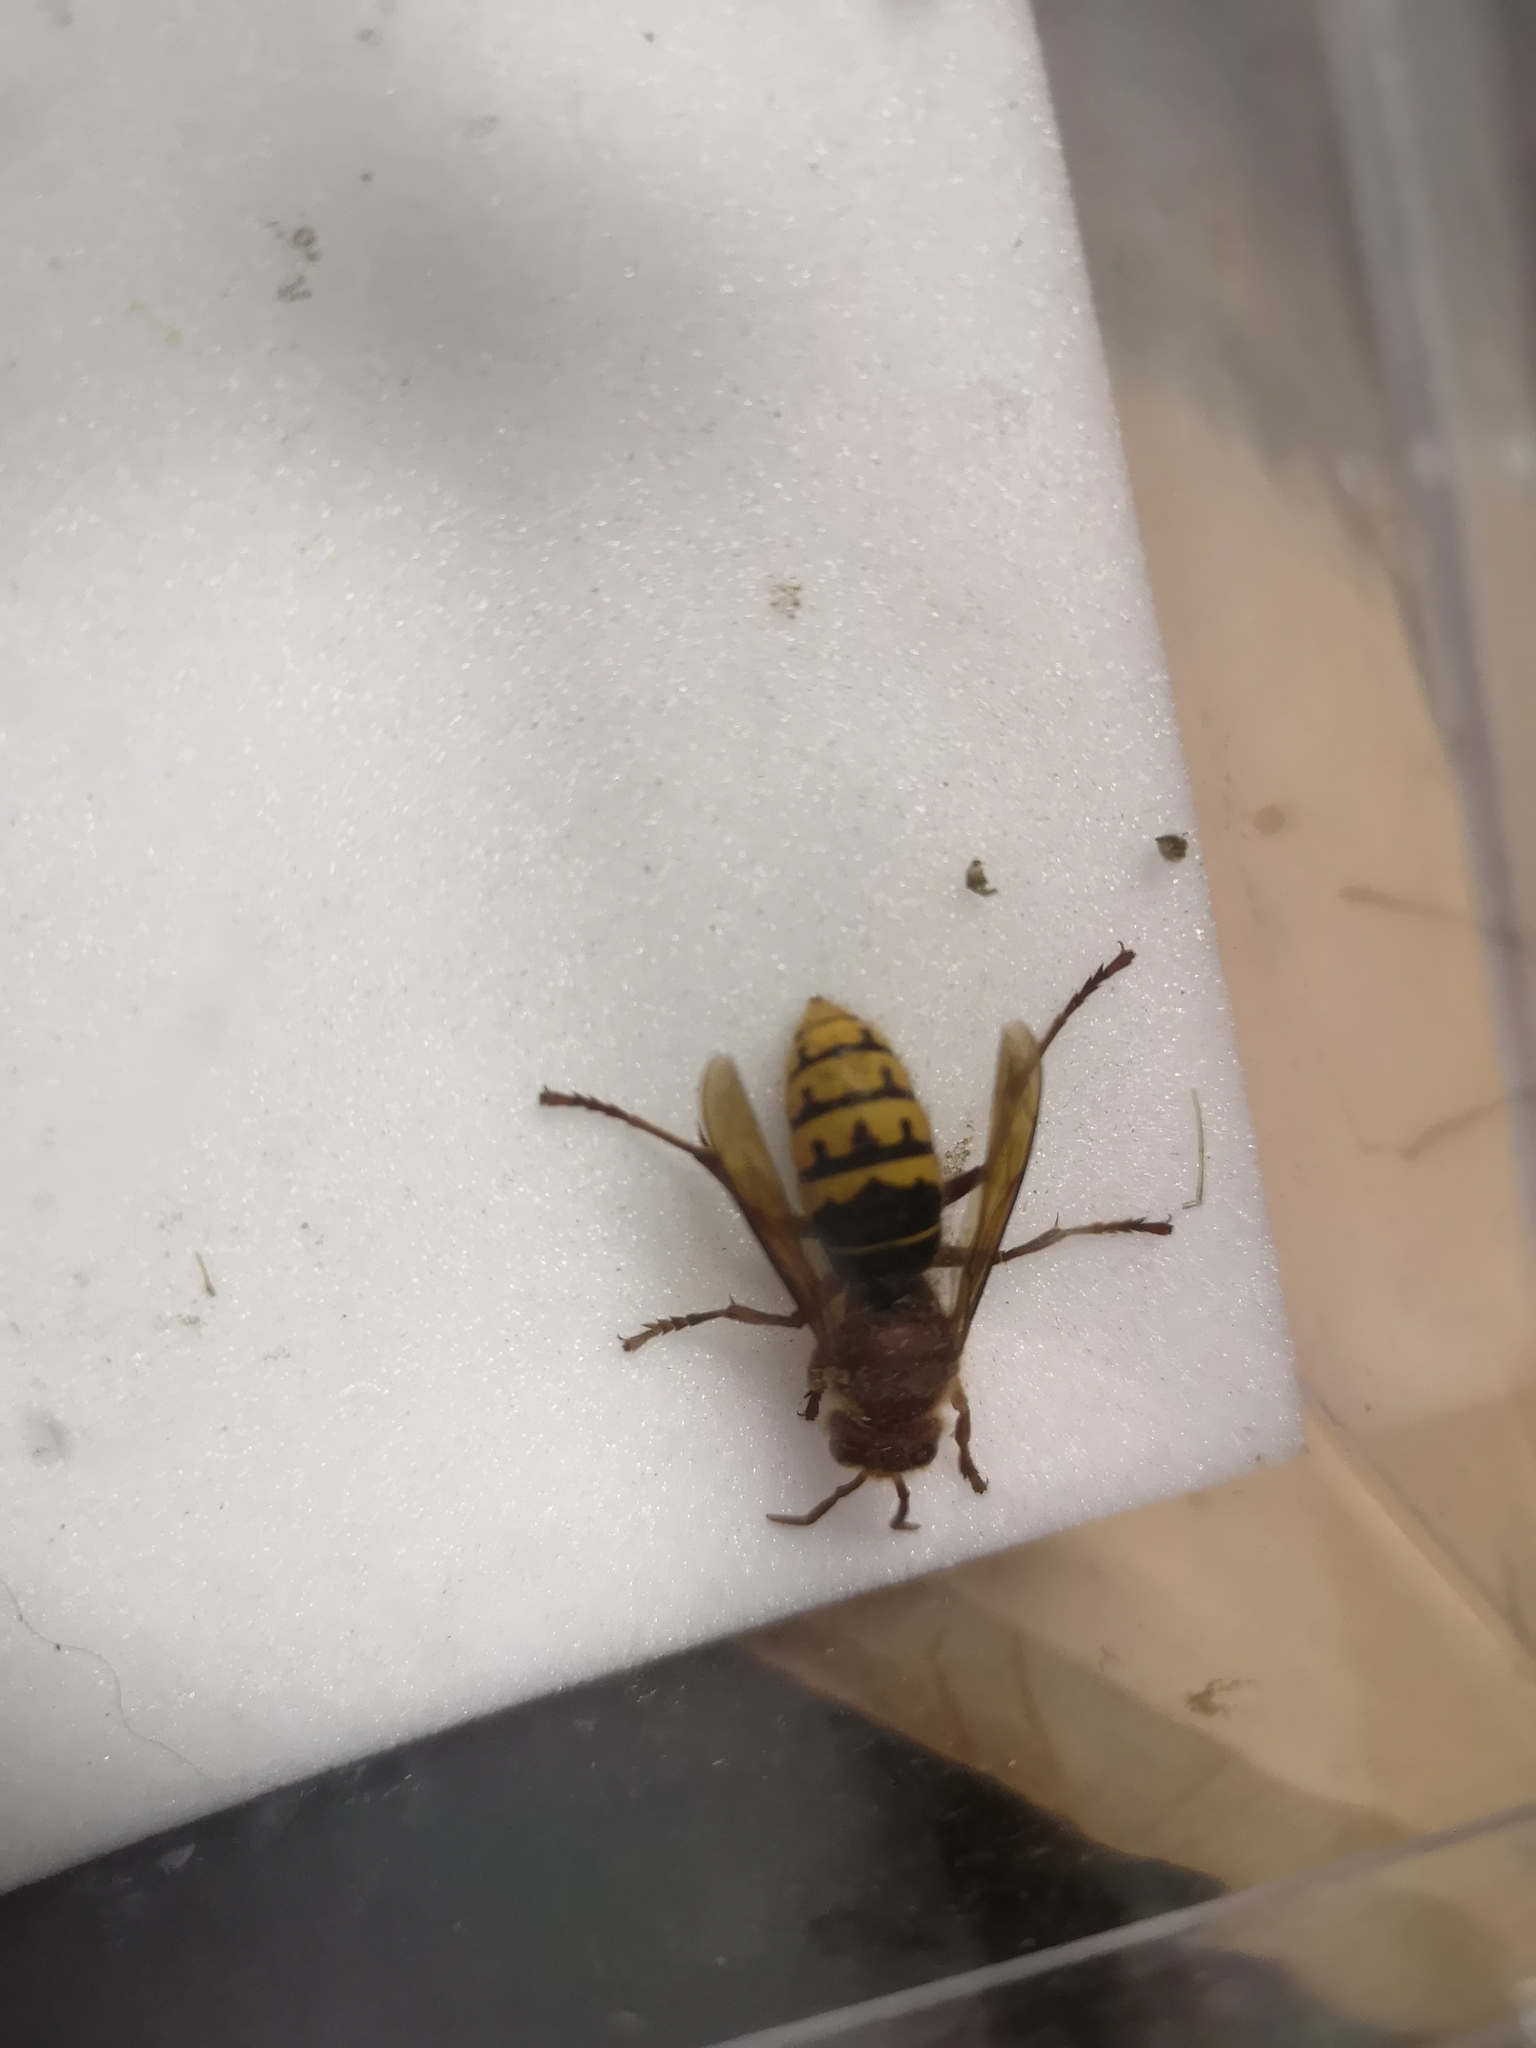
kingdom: Animalia
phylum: Arthropoda
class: Insecta
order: Hymenoptera
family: Vespidae
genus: Vespa
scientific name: Vespa crabro
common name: Hornet
